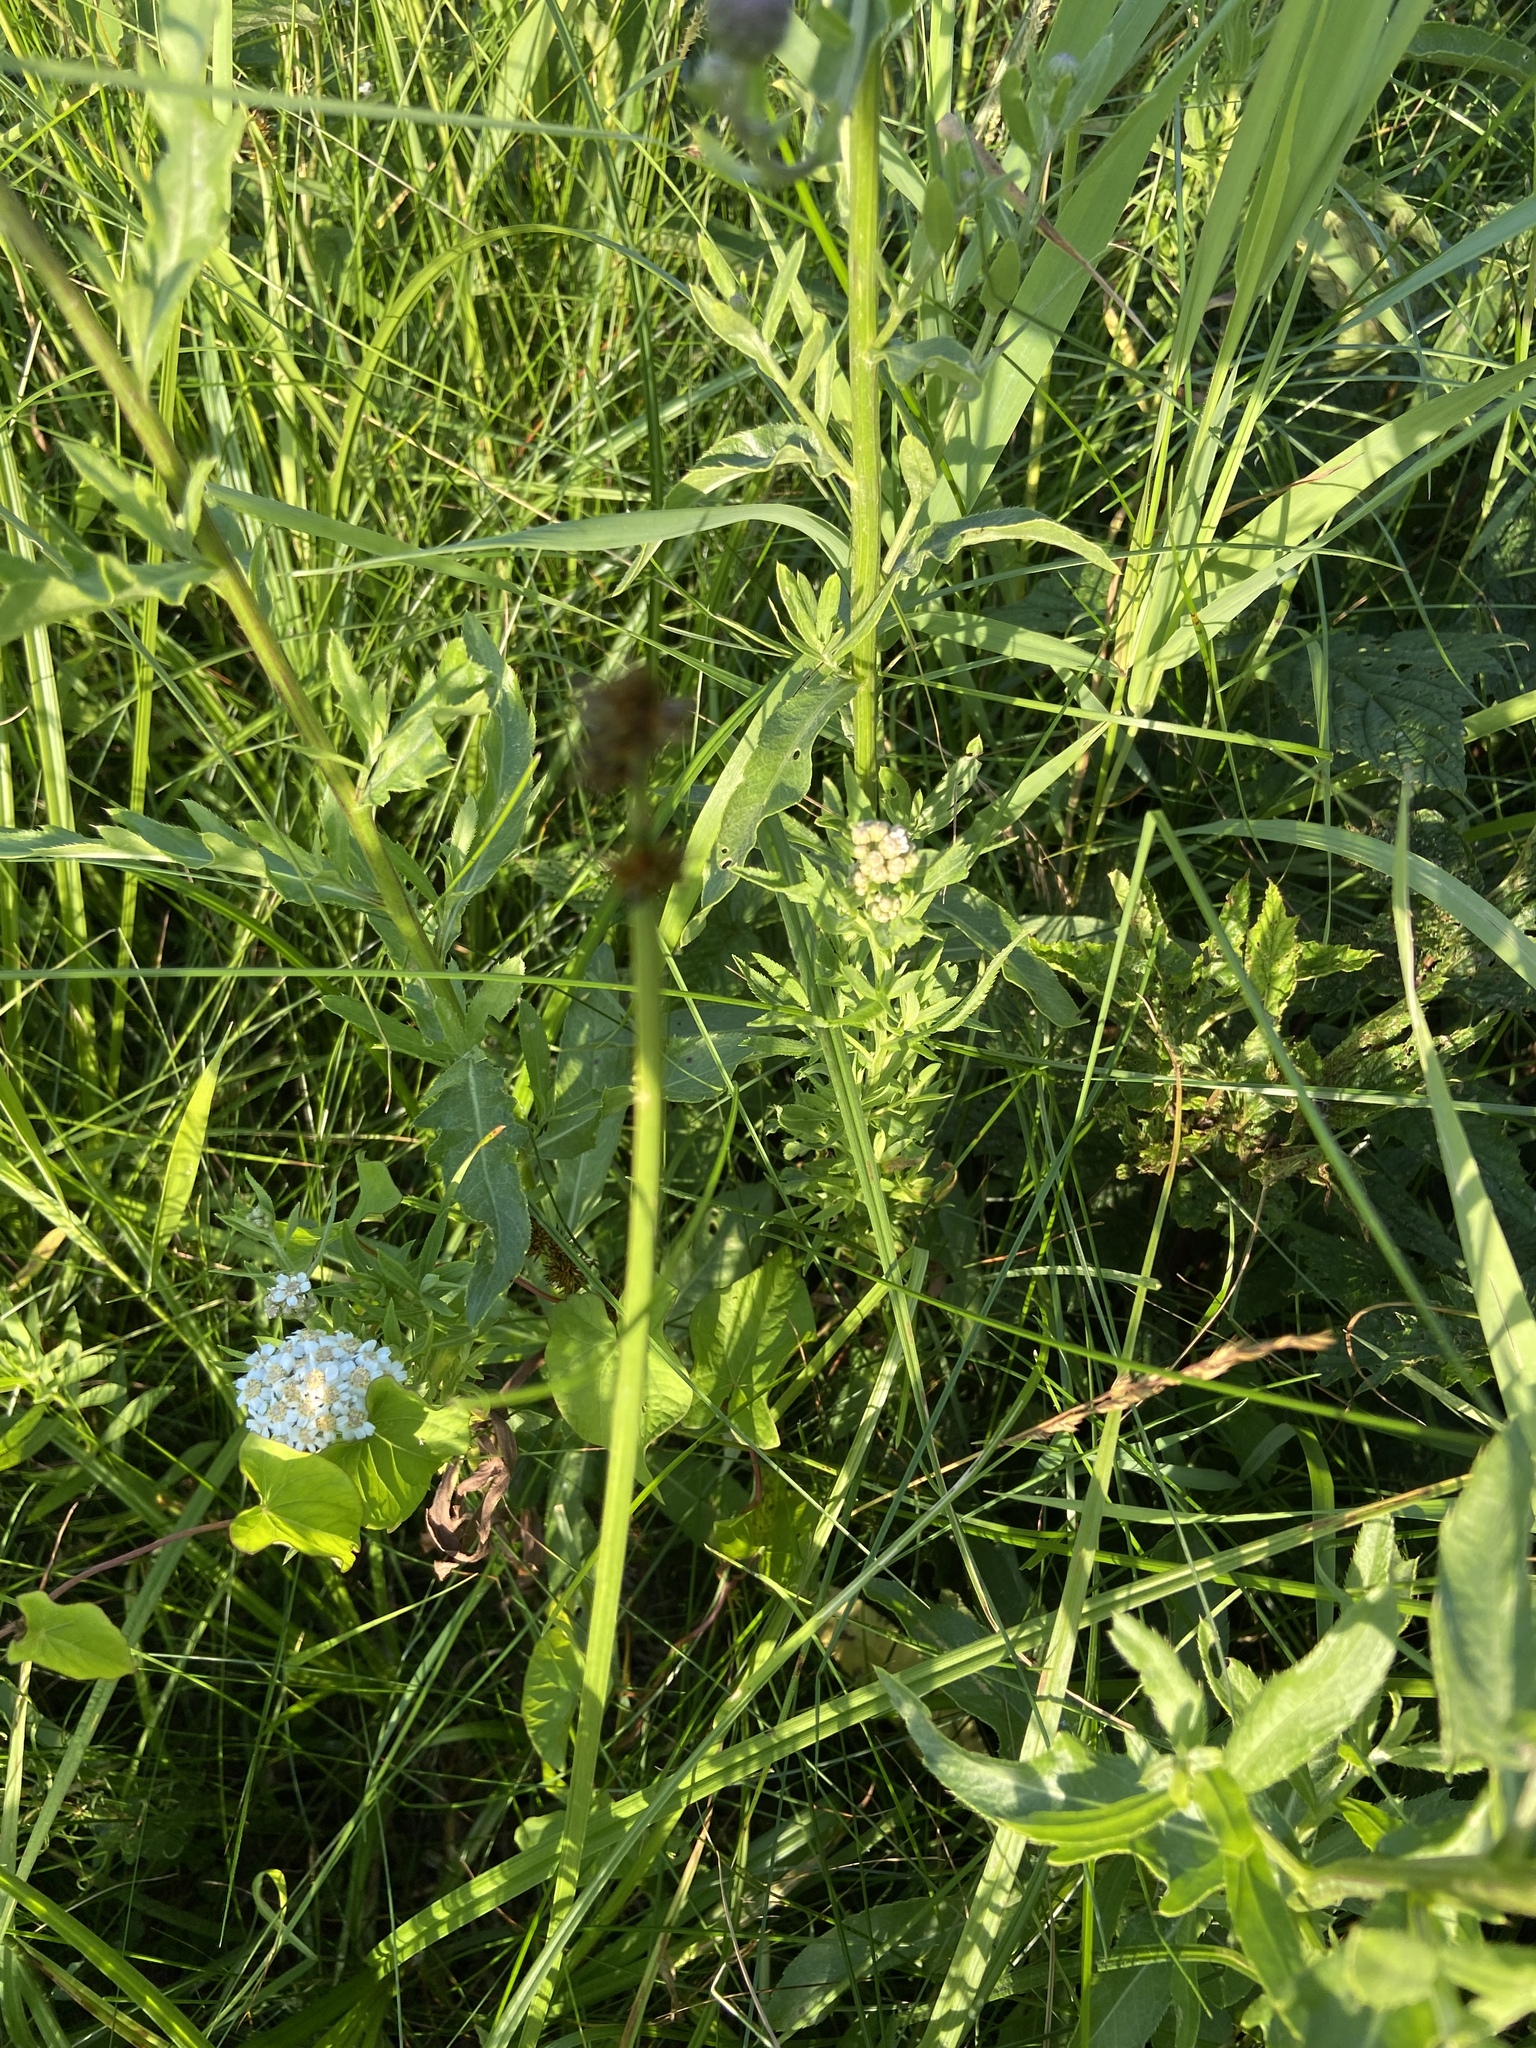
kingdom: Plantae
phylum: Tracheophyta
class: Magnoliopsida
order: Asterales
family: Asteraceae
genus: Cirsium
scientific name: Cirsium arvense
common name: Creeping thistle
